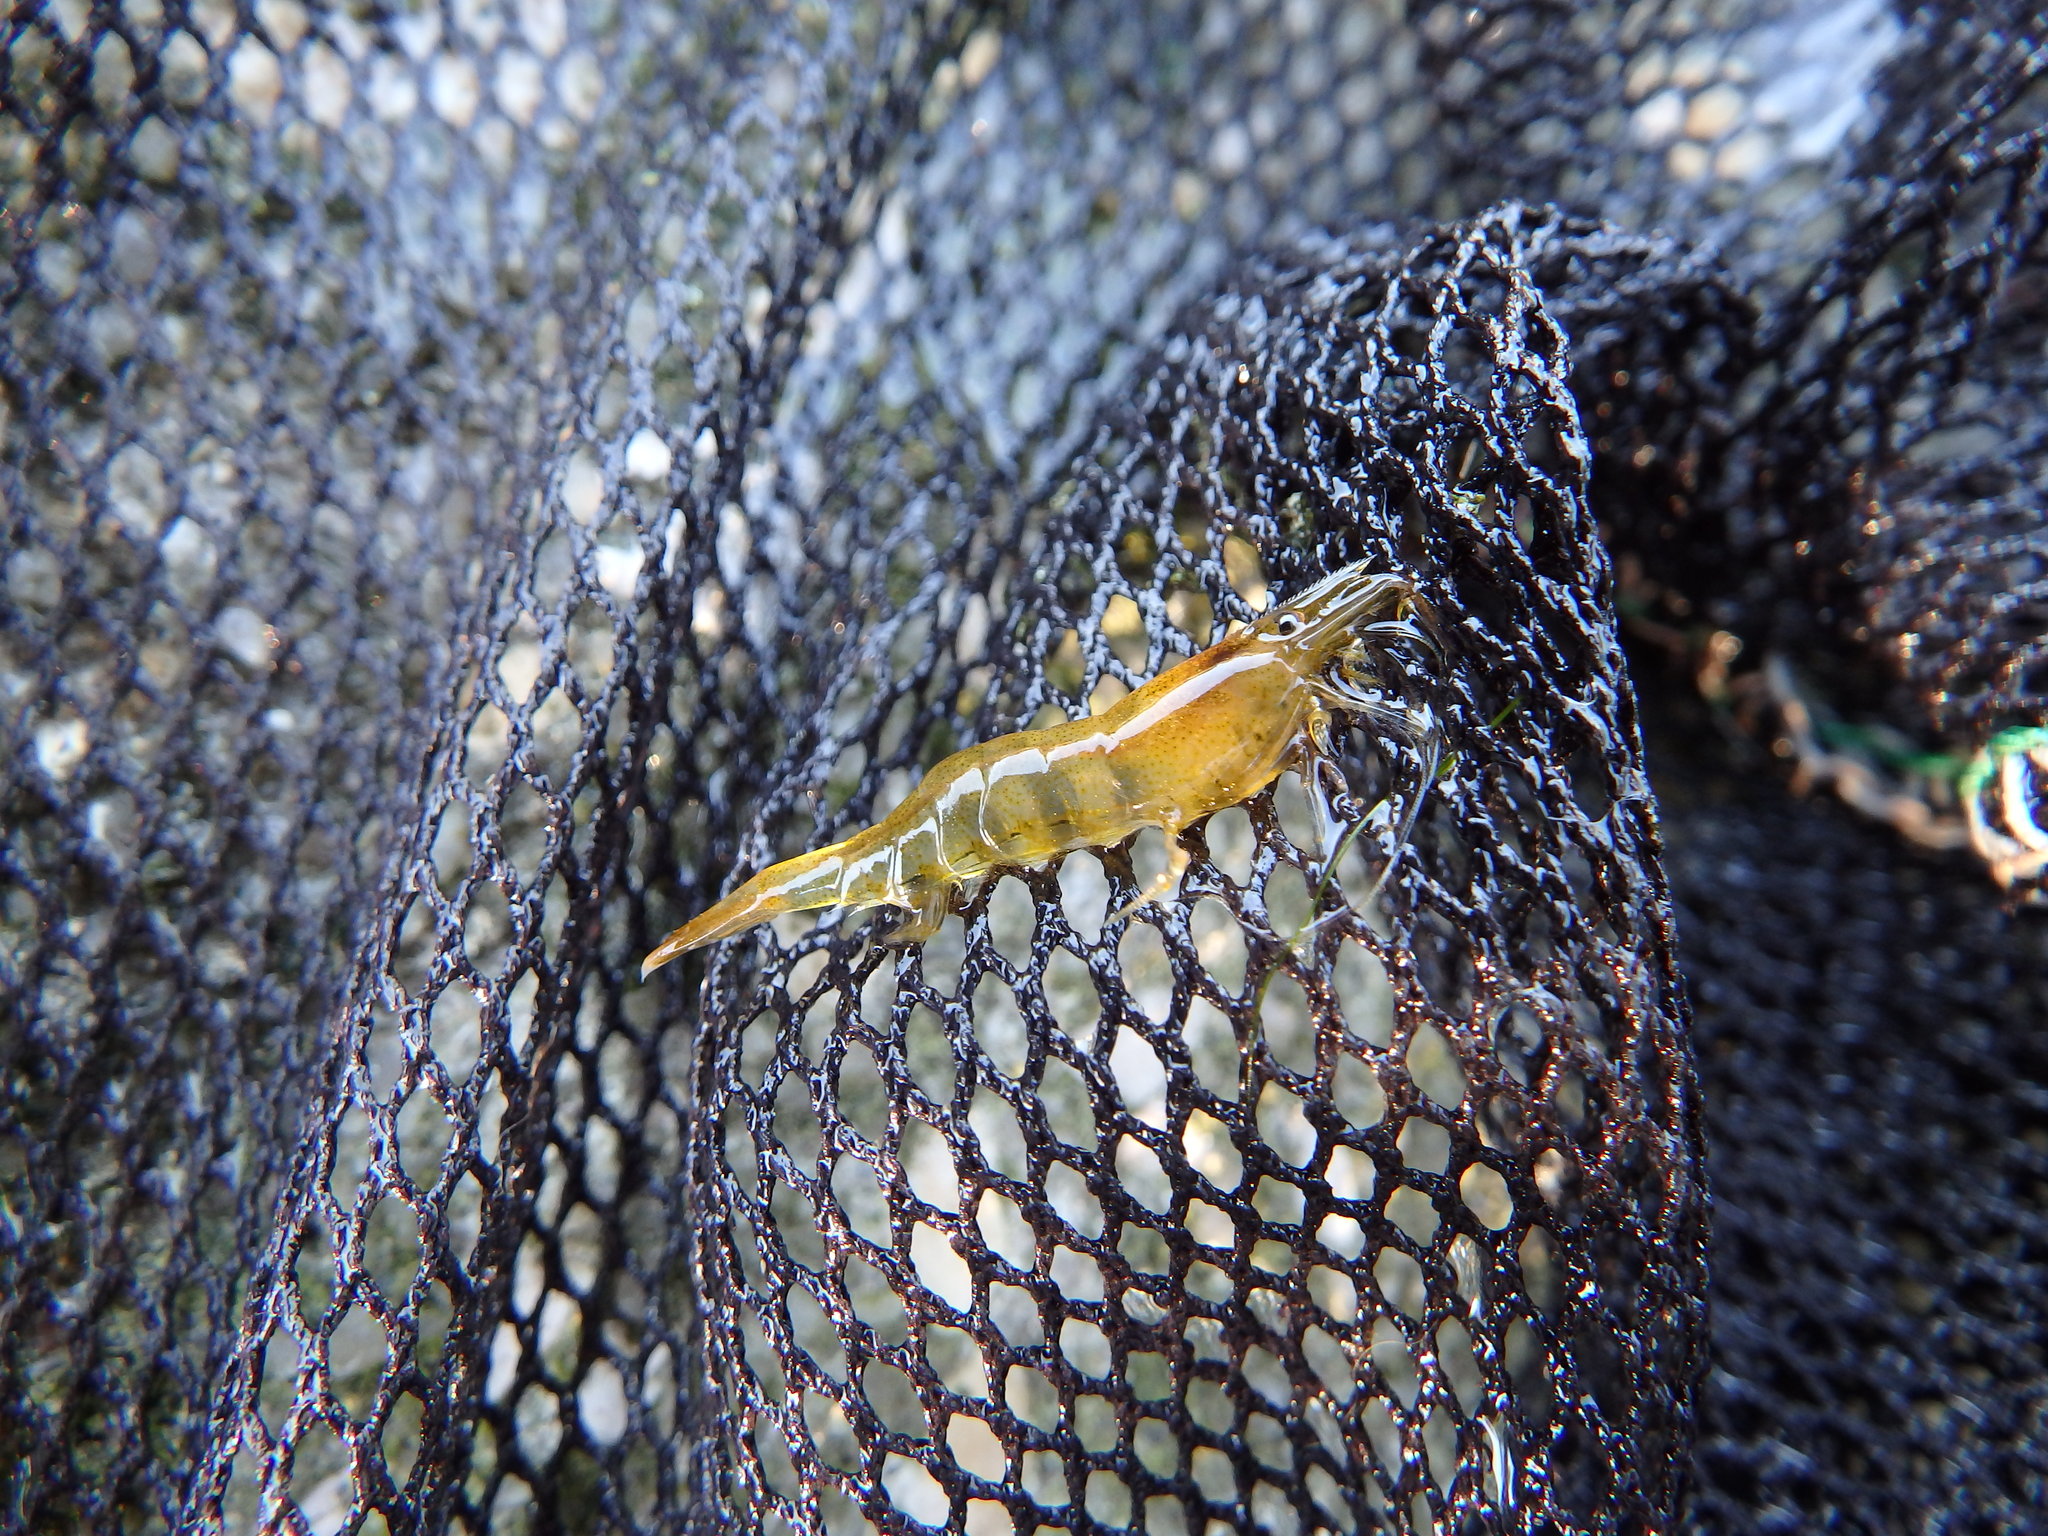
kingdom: Animalia
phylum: Arthropoda
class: Malacostraca
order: Decapoda
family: Atyidae
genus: Atyaephyra
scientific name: Atyaephyra desmarestii
